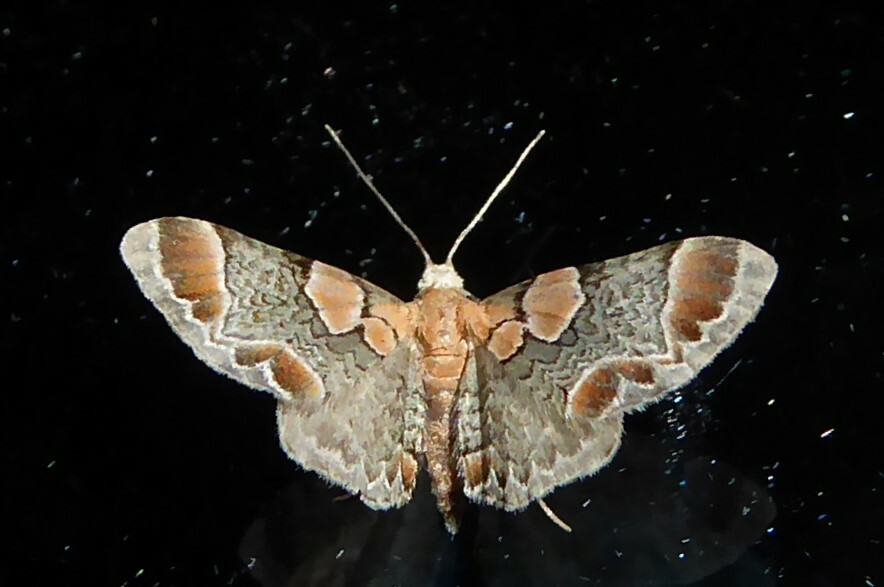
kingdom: Animalia
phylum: Arthropoda
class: Insecta
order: Lepidoptera
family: Geometridae
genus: Chloroclystis
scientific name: Chloroclystis
